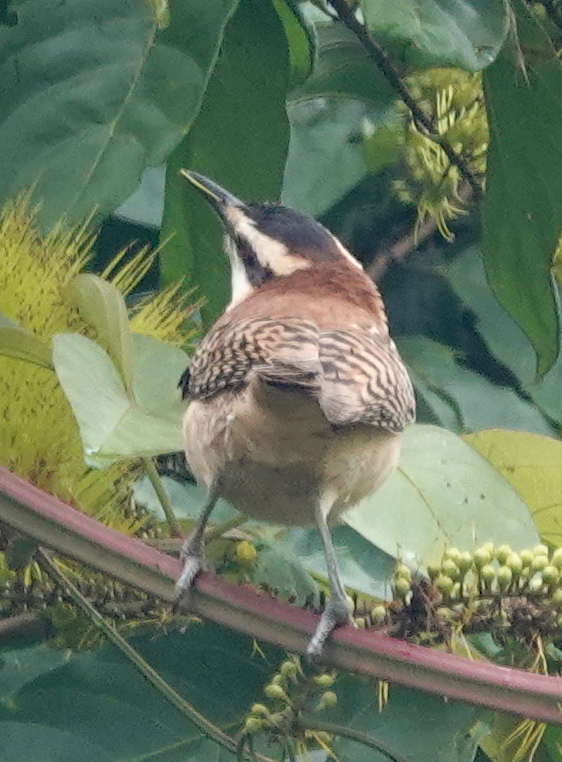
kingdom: Animalia
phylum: Chordata
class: Aves
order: Passeriformes
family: Troglodytidae
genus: Campylorhynchus
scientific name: Campylorhynchus rufinucha
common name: Rufous-naped wren
